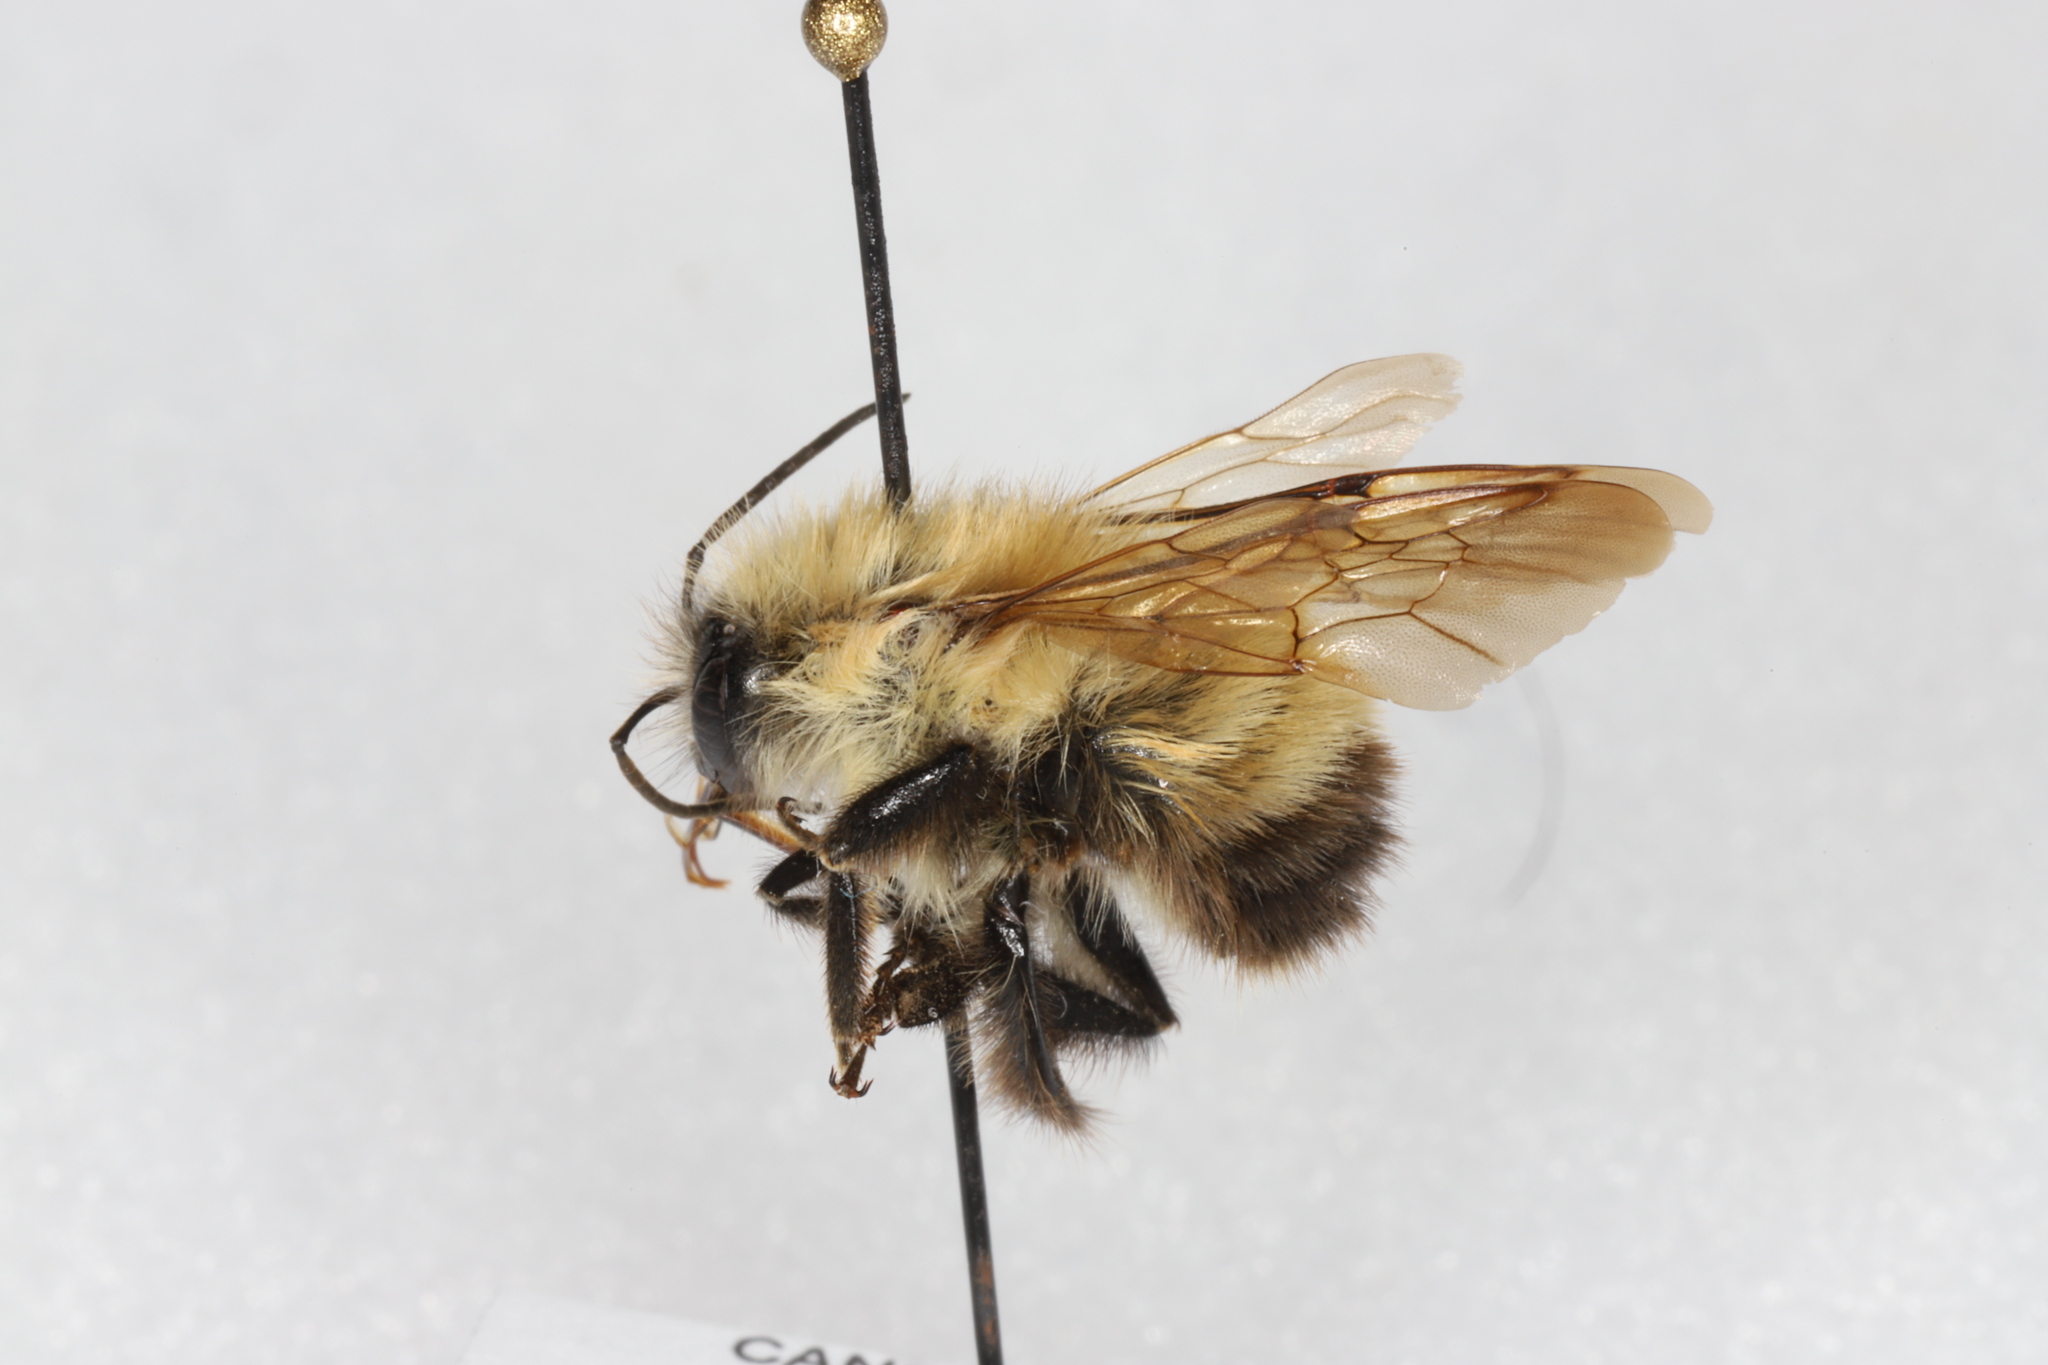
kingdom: Animalia
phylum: Arthropoda
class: Insecta
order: Hymenoptera
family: Apidae
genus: Bombus
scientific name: Bombus perplexus
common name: Confusing bumble bee
